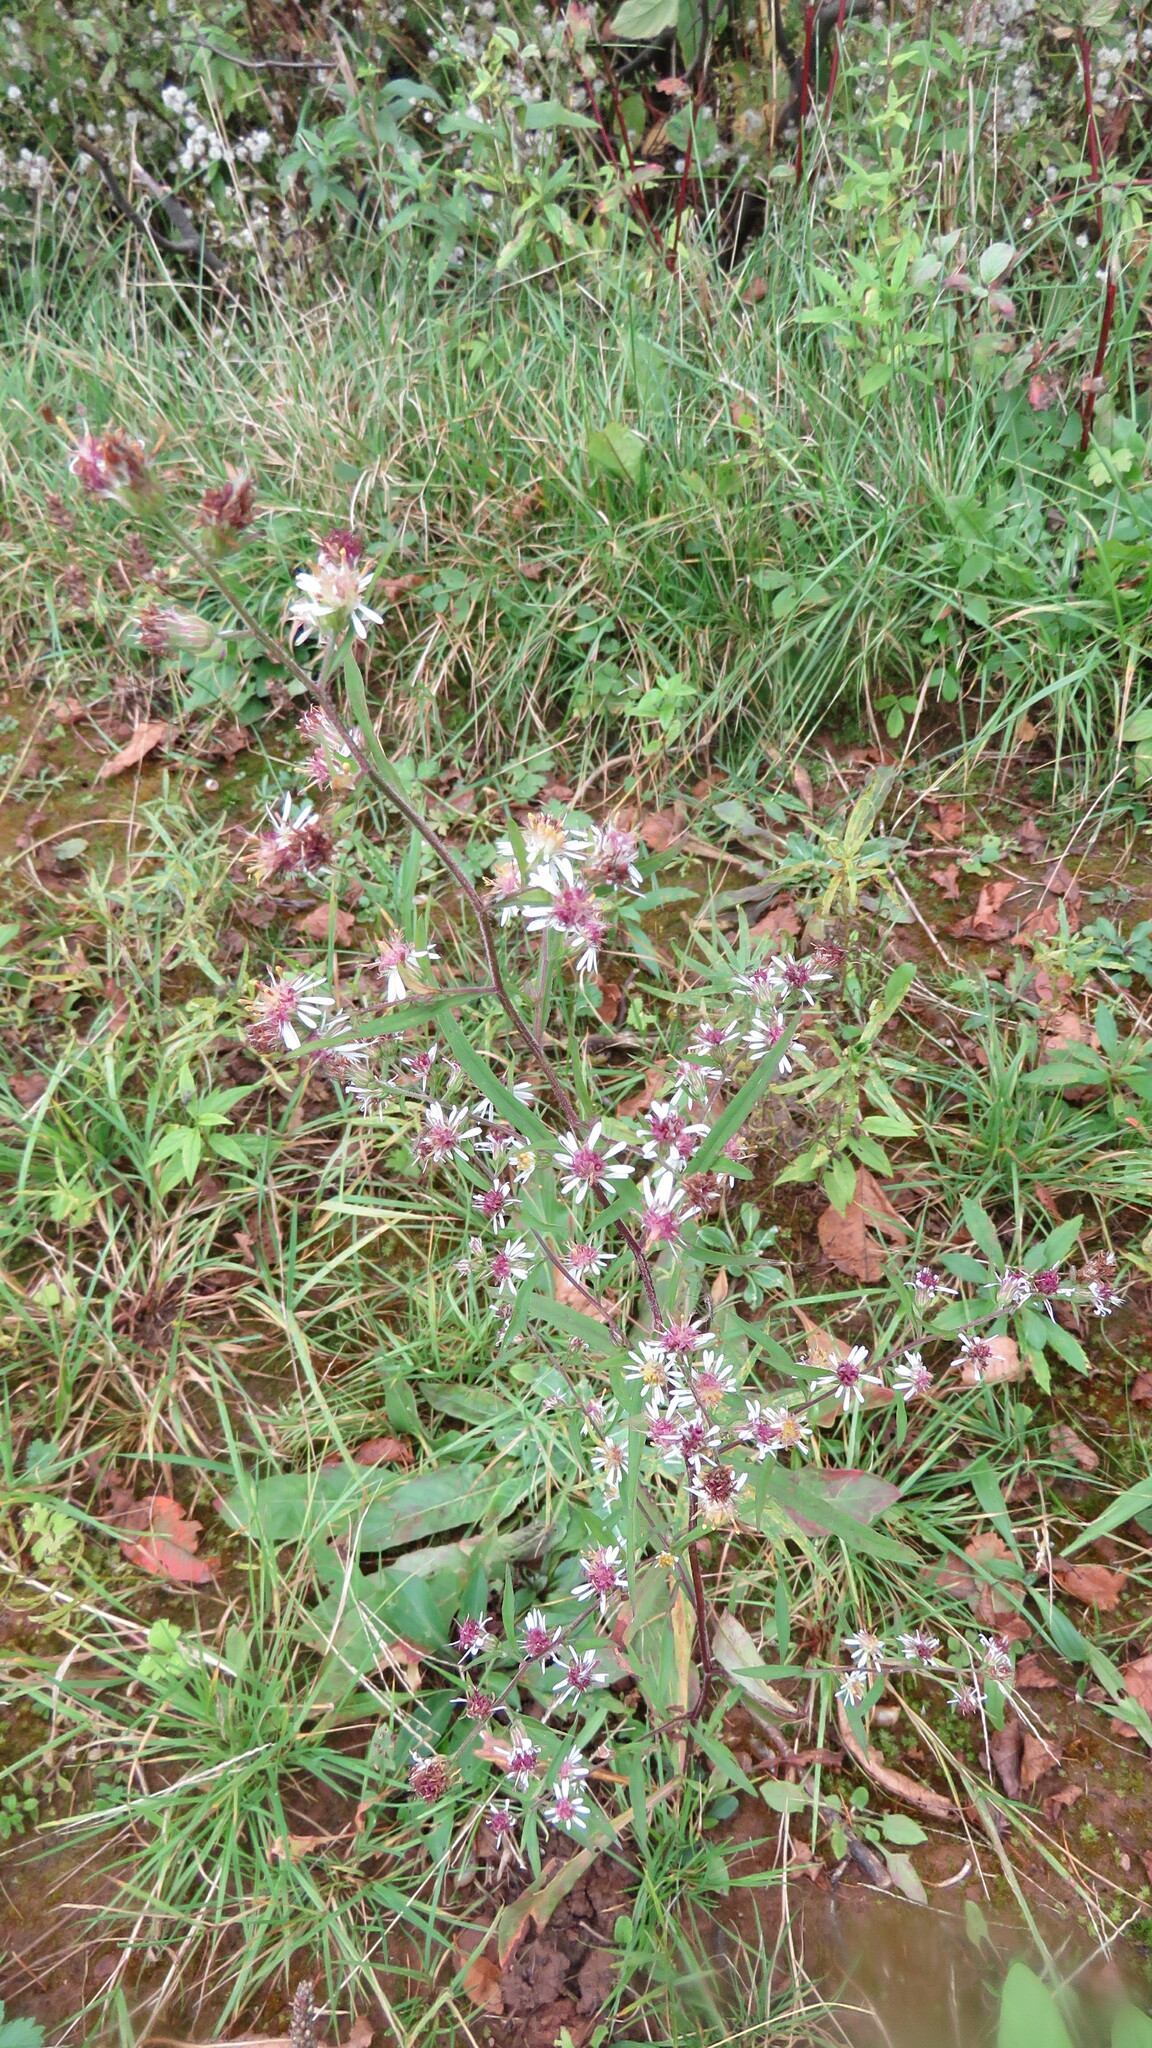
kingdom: Plantae
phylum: Tracheophyta
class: Magnoliopsida
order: Asterales
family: Asteraceae
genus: Symphyotrichum
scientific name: Symphyotrichum lateriflorum
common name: Calico aster
